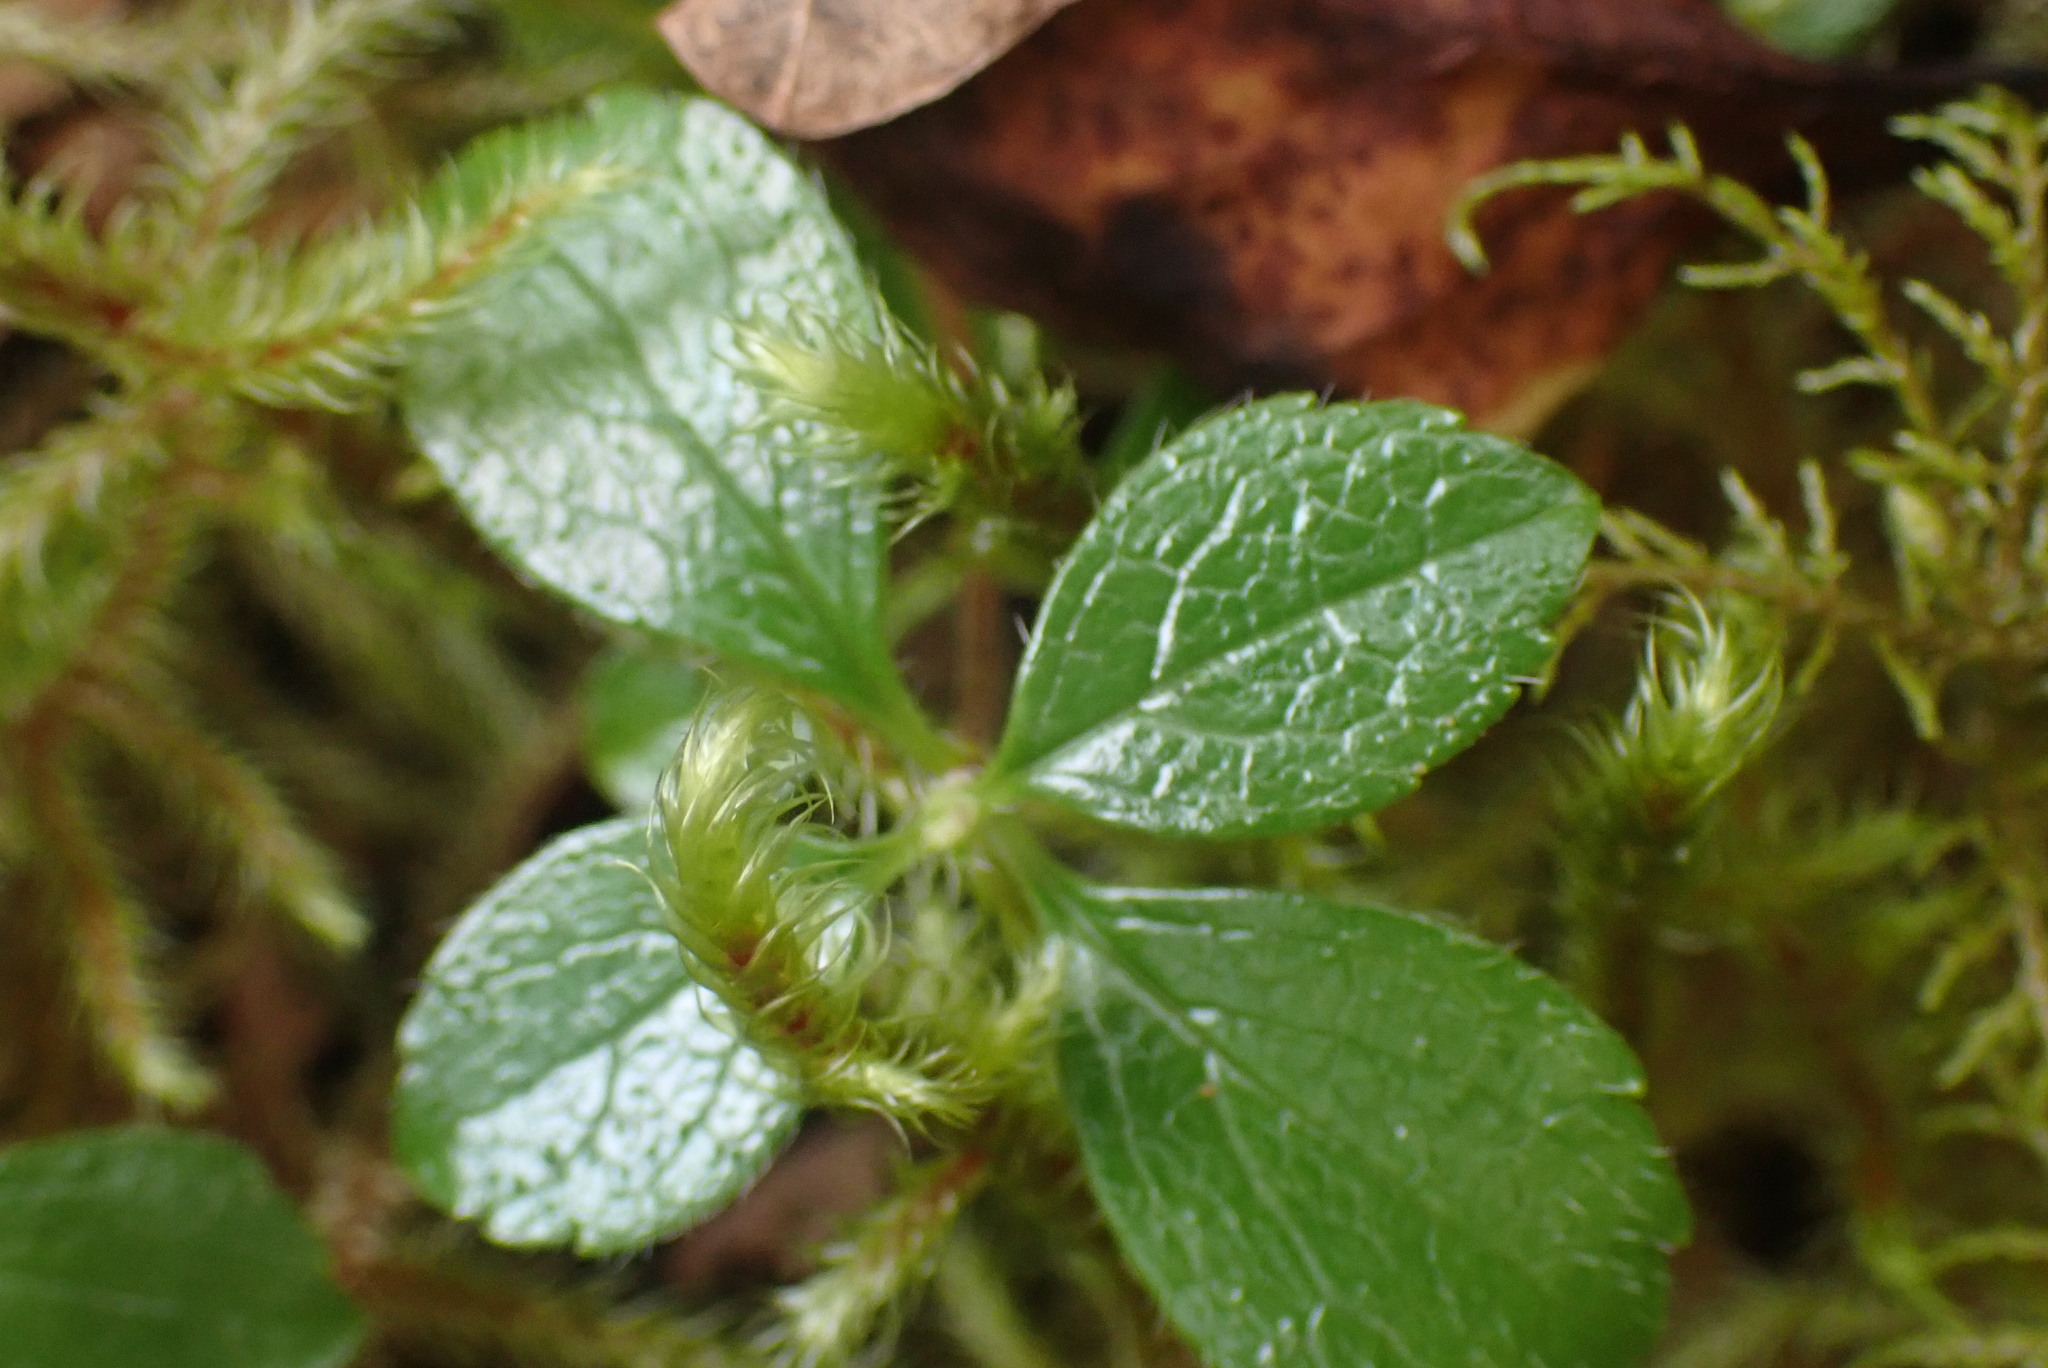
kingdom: Plantae
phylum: Tracheophyta
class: Magnoliopsida
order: Dipsacales
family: Caprifoliaceae
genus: Linnaea
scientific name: Linnaea borealis
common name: Twinflower
